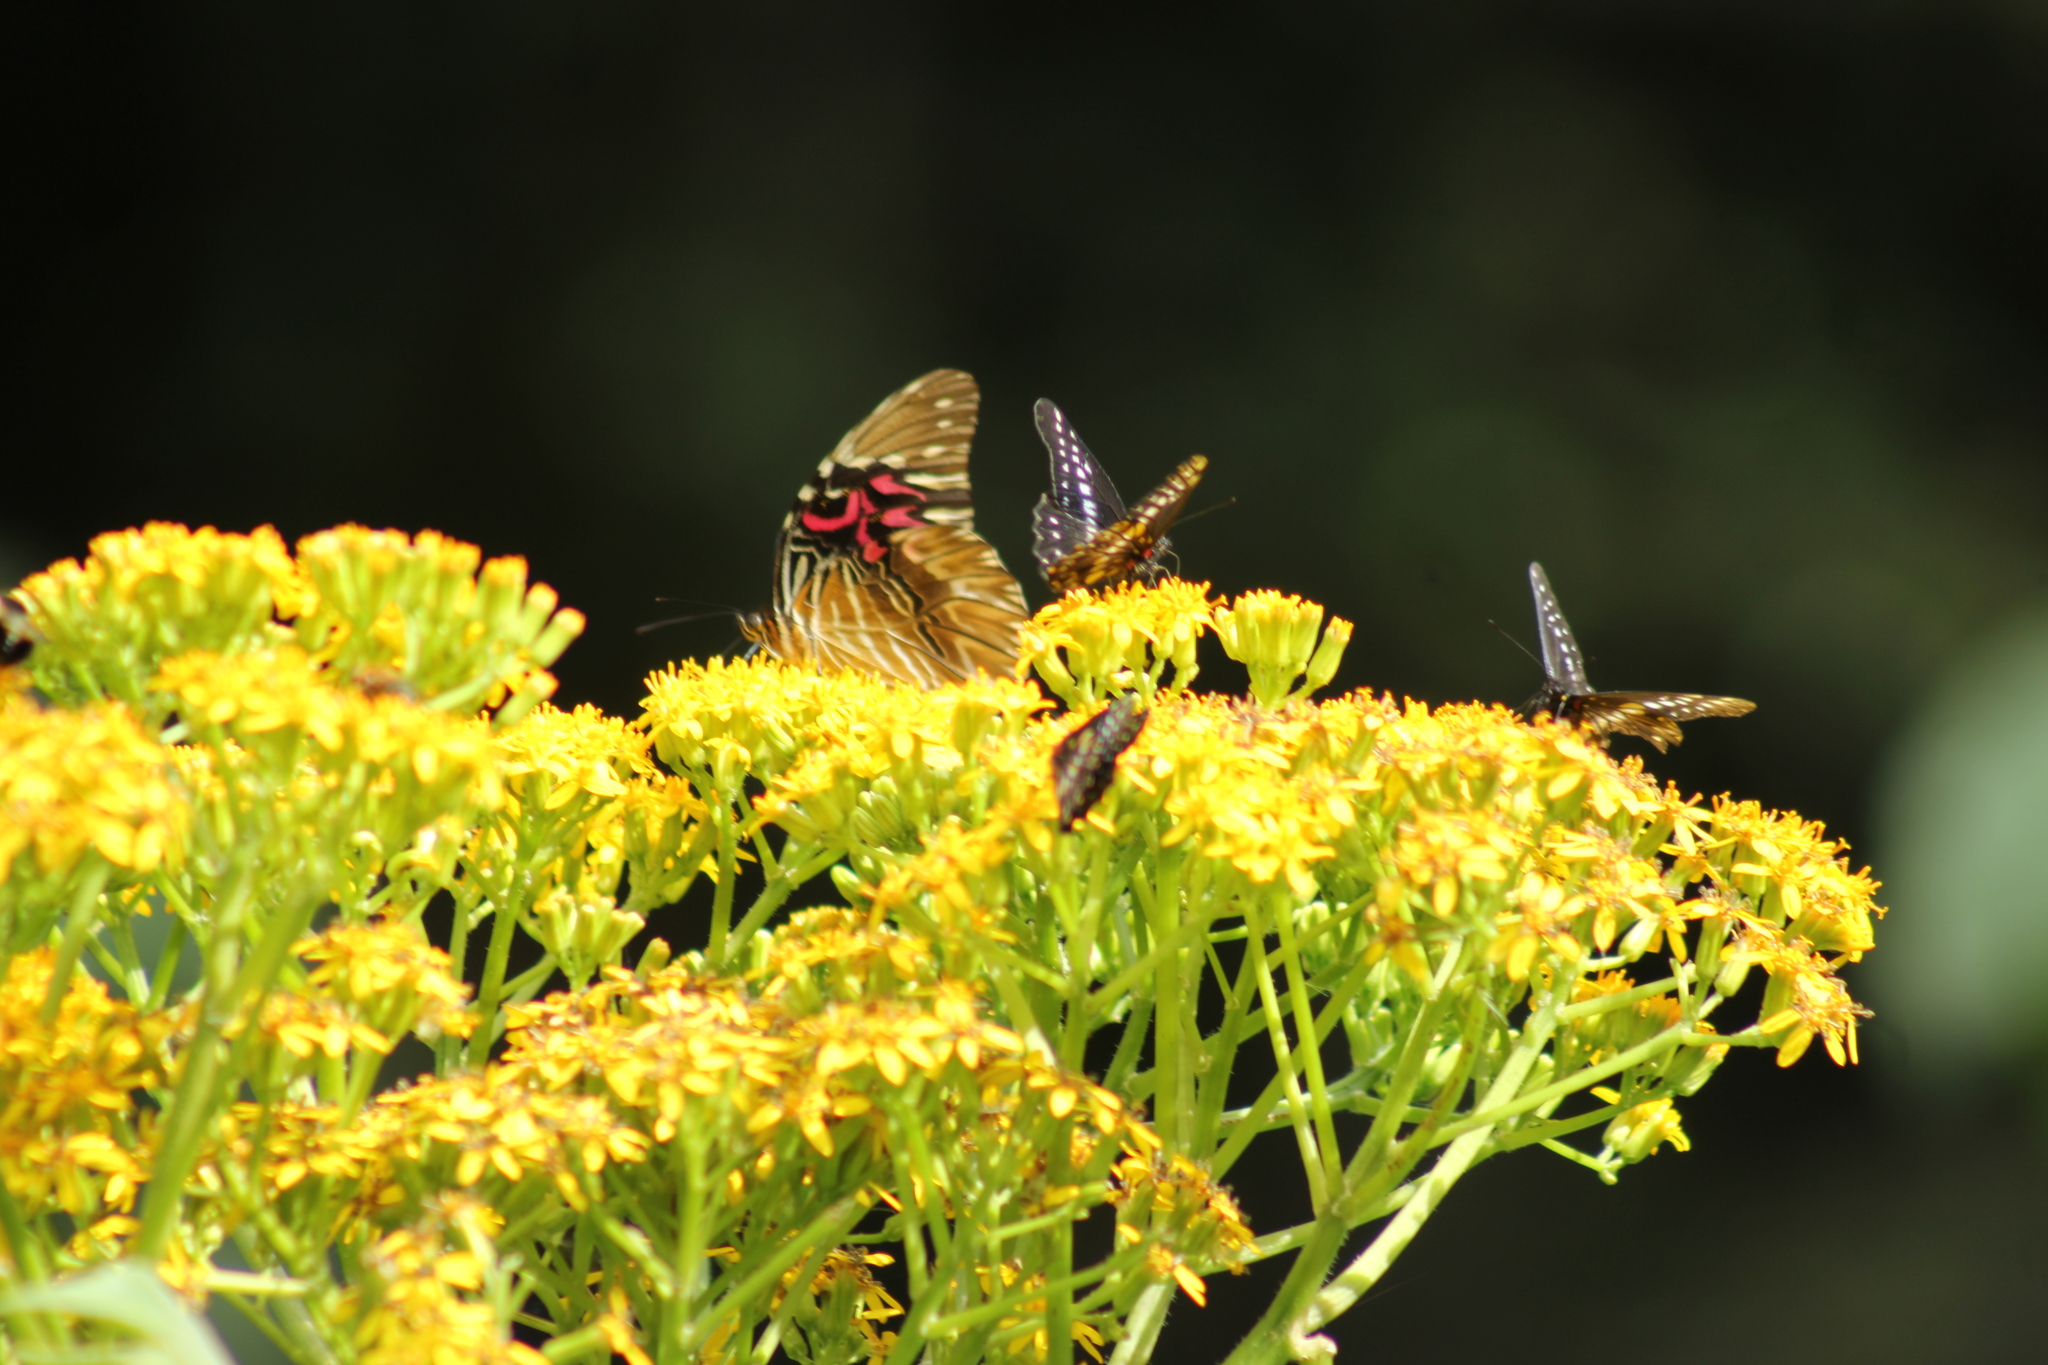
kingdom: Animalia
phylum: Arthropoda
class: Insecta
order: Lepidoptera
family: Nymphalidae
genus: Anetia
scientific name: Anetia thirza
